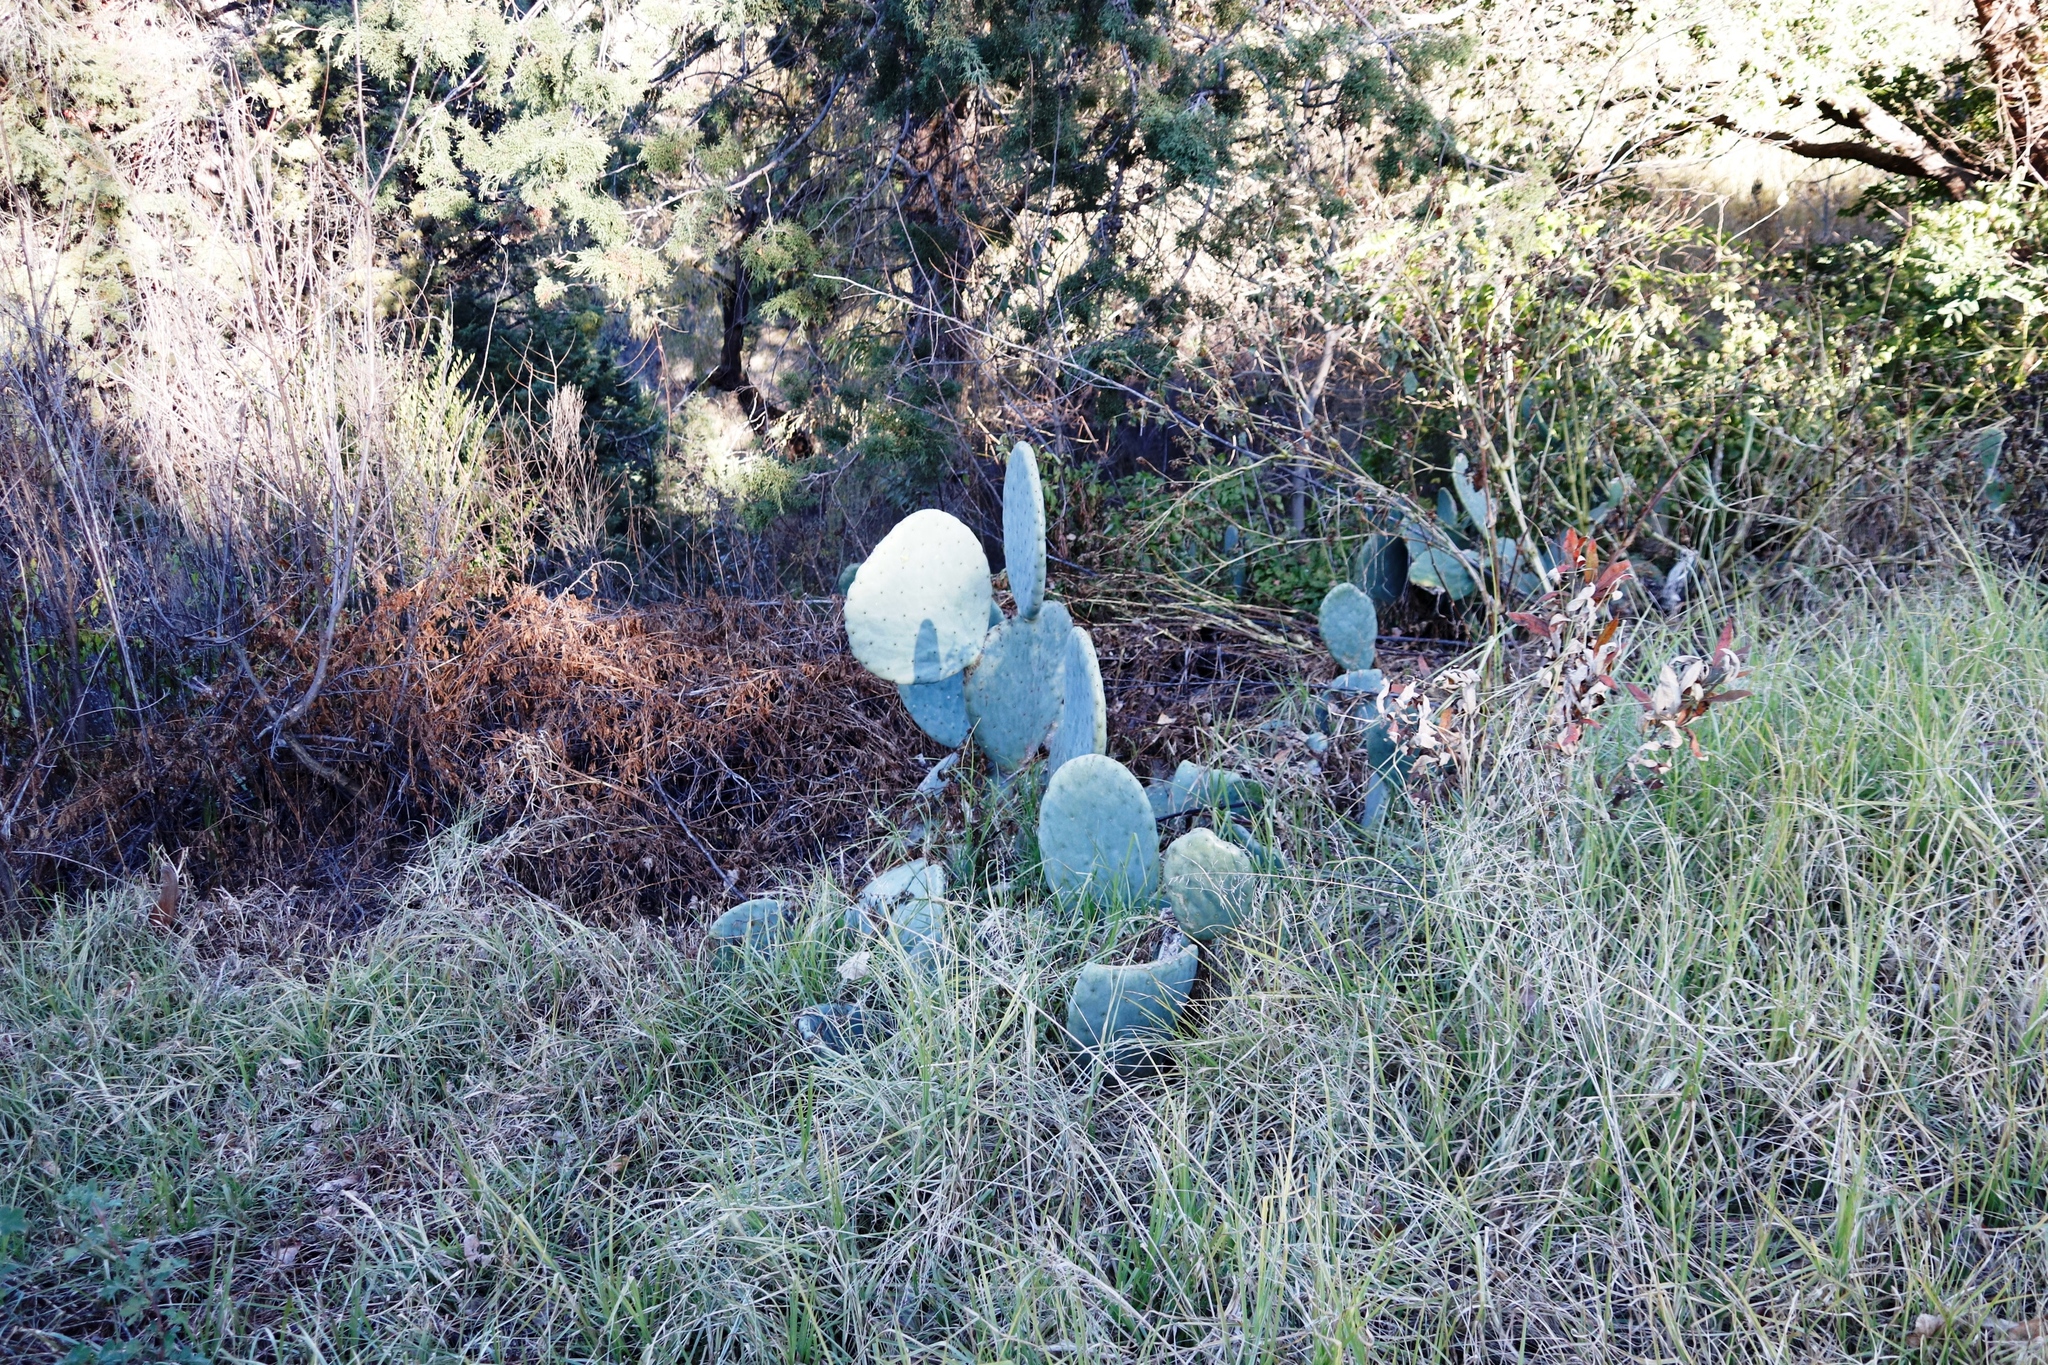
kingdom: Plantae
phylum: Tracheophyta
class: Magnoliopsida
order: Caryophyllales
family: Cactaceae
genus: Opuntia
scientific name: Opuntia robusta
